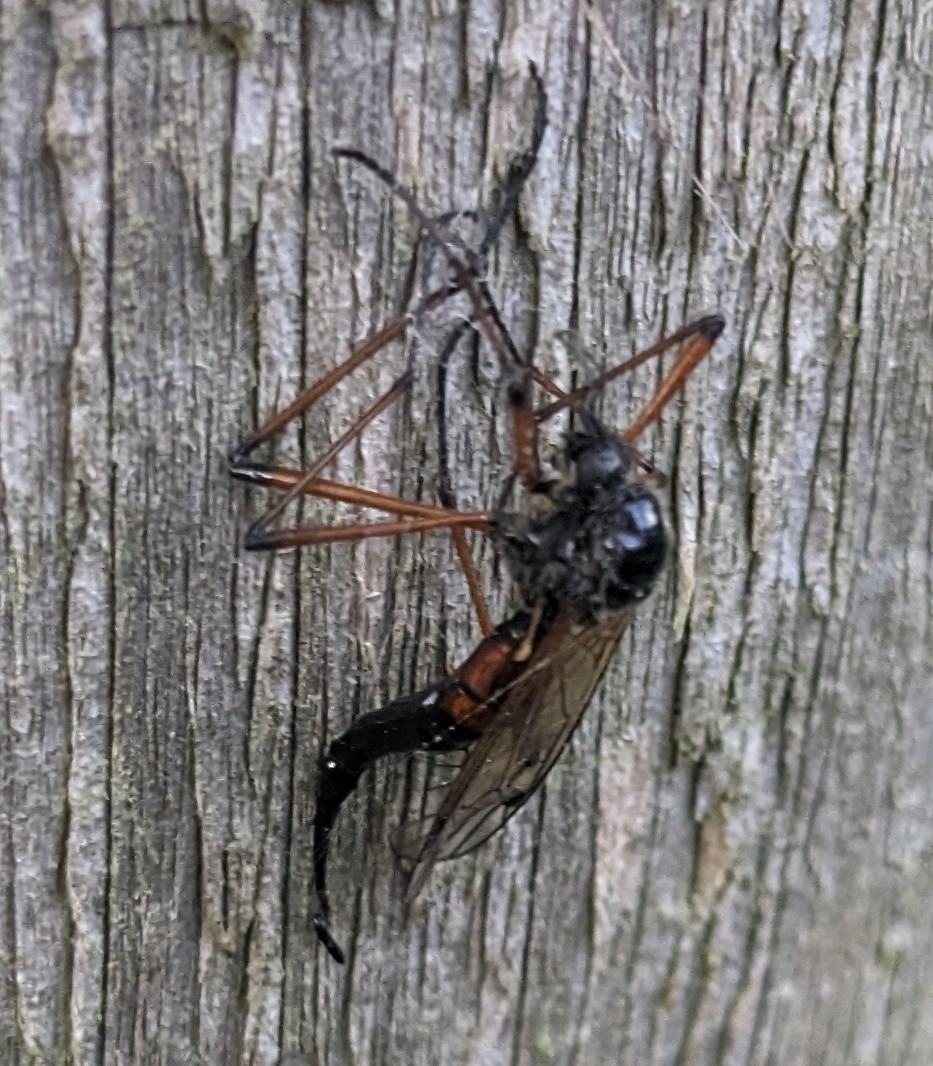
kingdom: Animalia
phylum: Arthropoda
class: Insecta
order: Diptera
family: Tipulidae
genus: Tanyptera
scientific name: Tanyptera atrata
